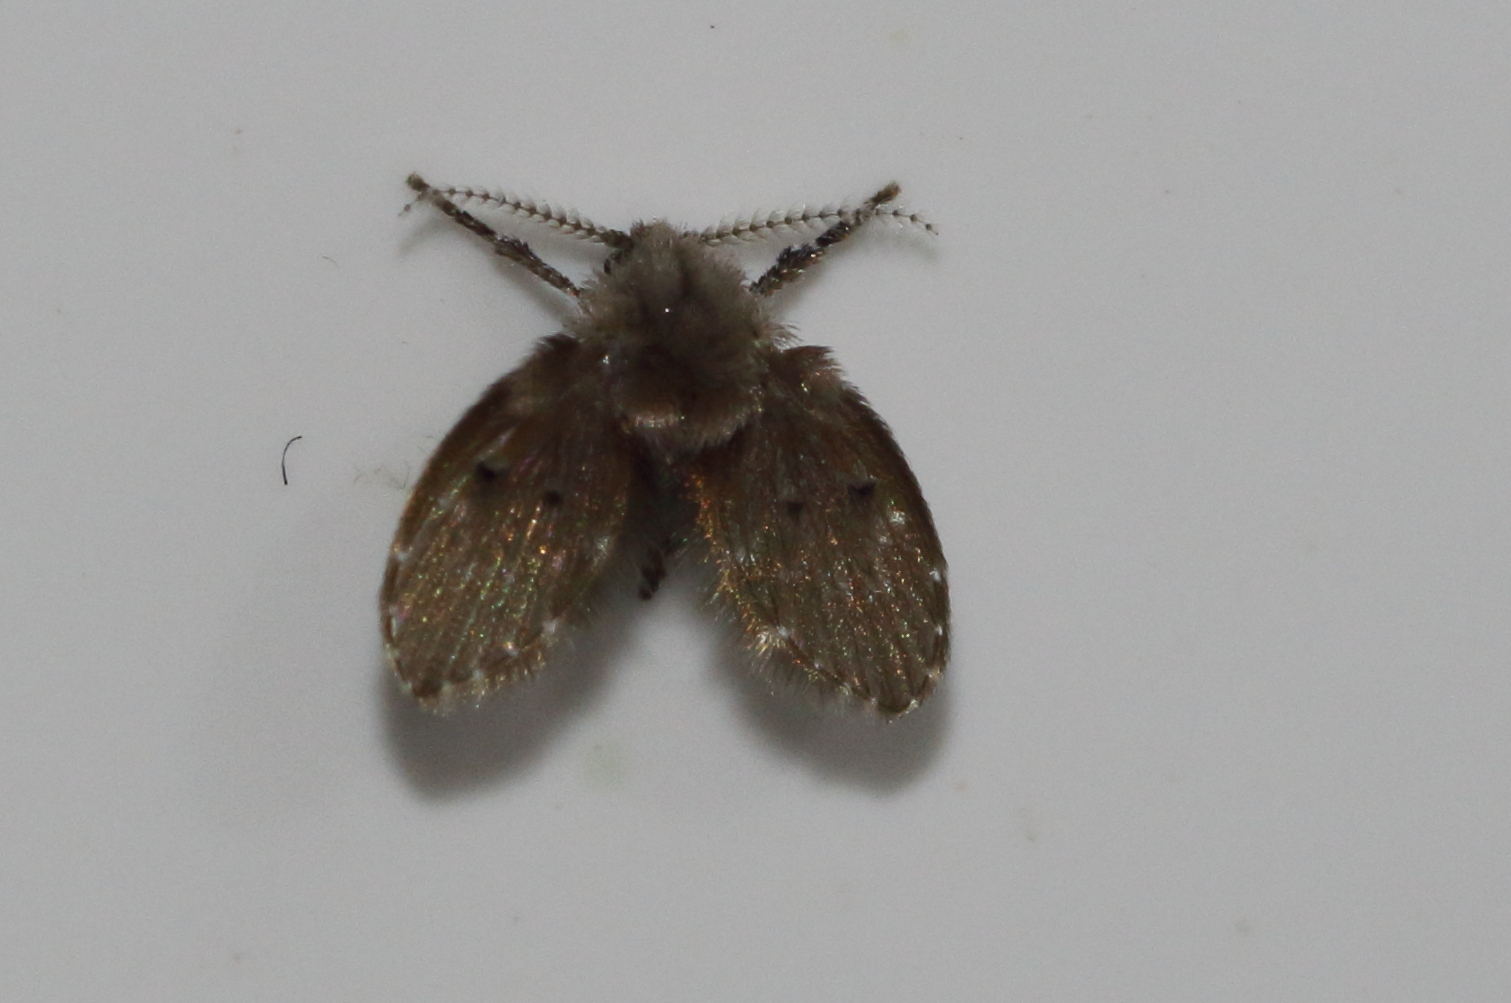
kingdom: Animalia
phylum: Arthropoda
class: Insecta
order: Diptera
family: Psychodidae
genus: Clogmia
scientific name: Clogmia albipunctatus
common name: White-spotted moth fly
